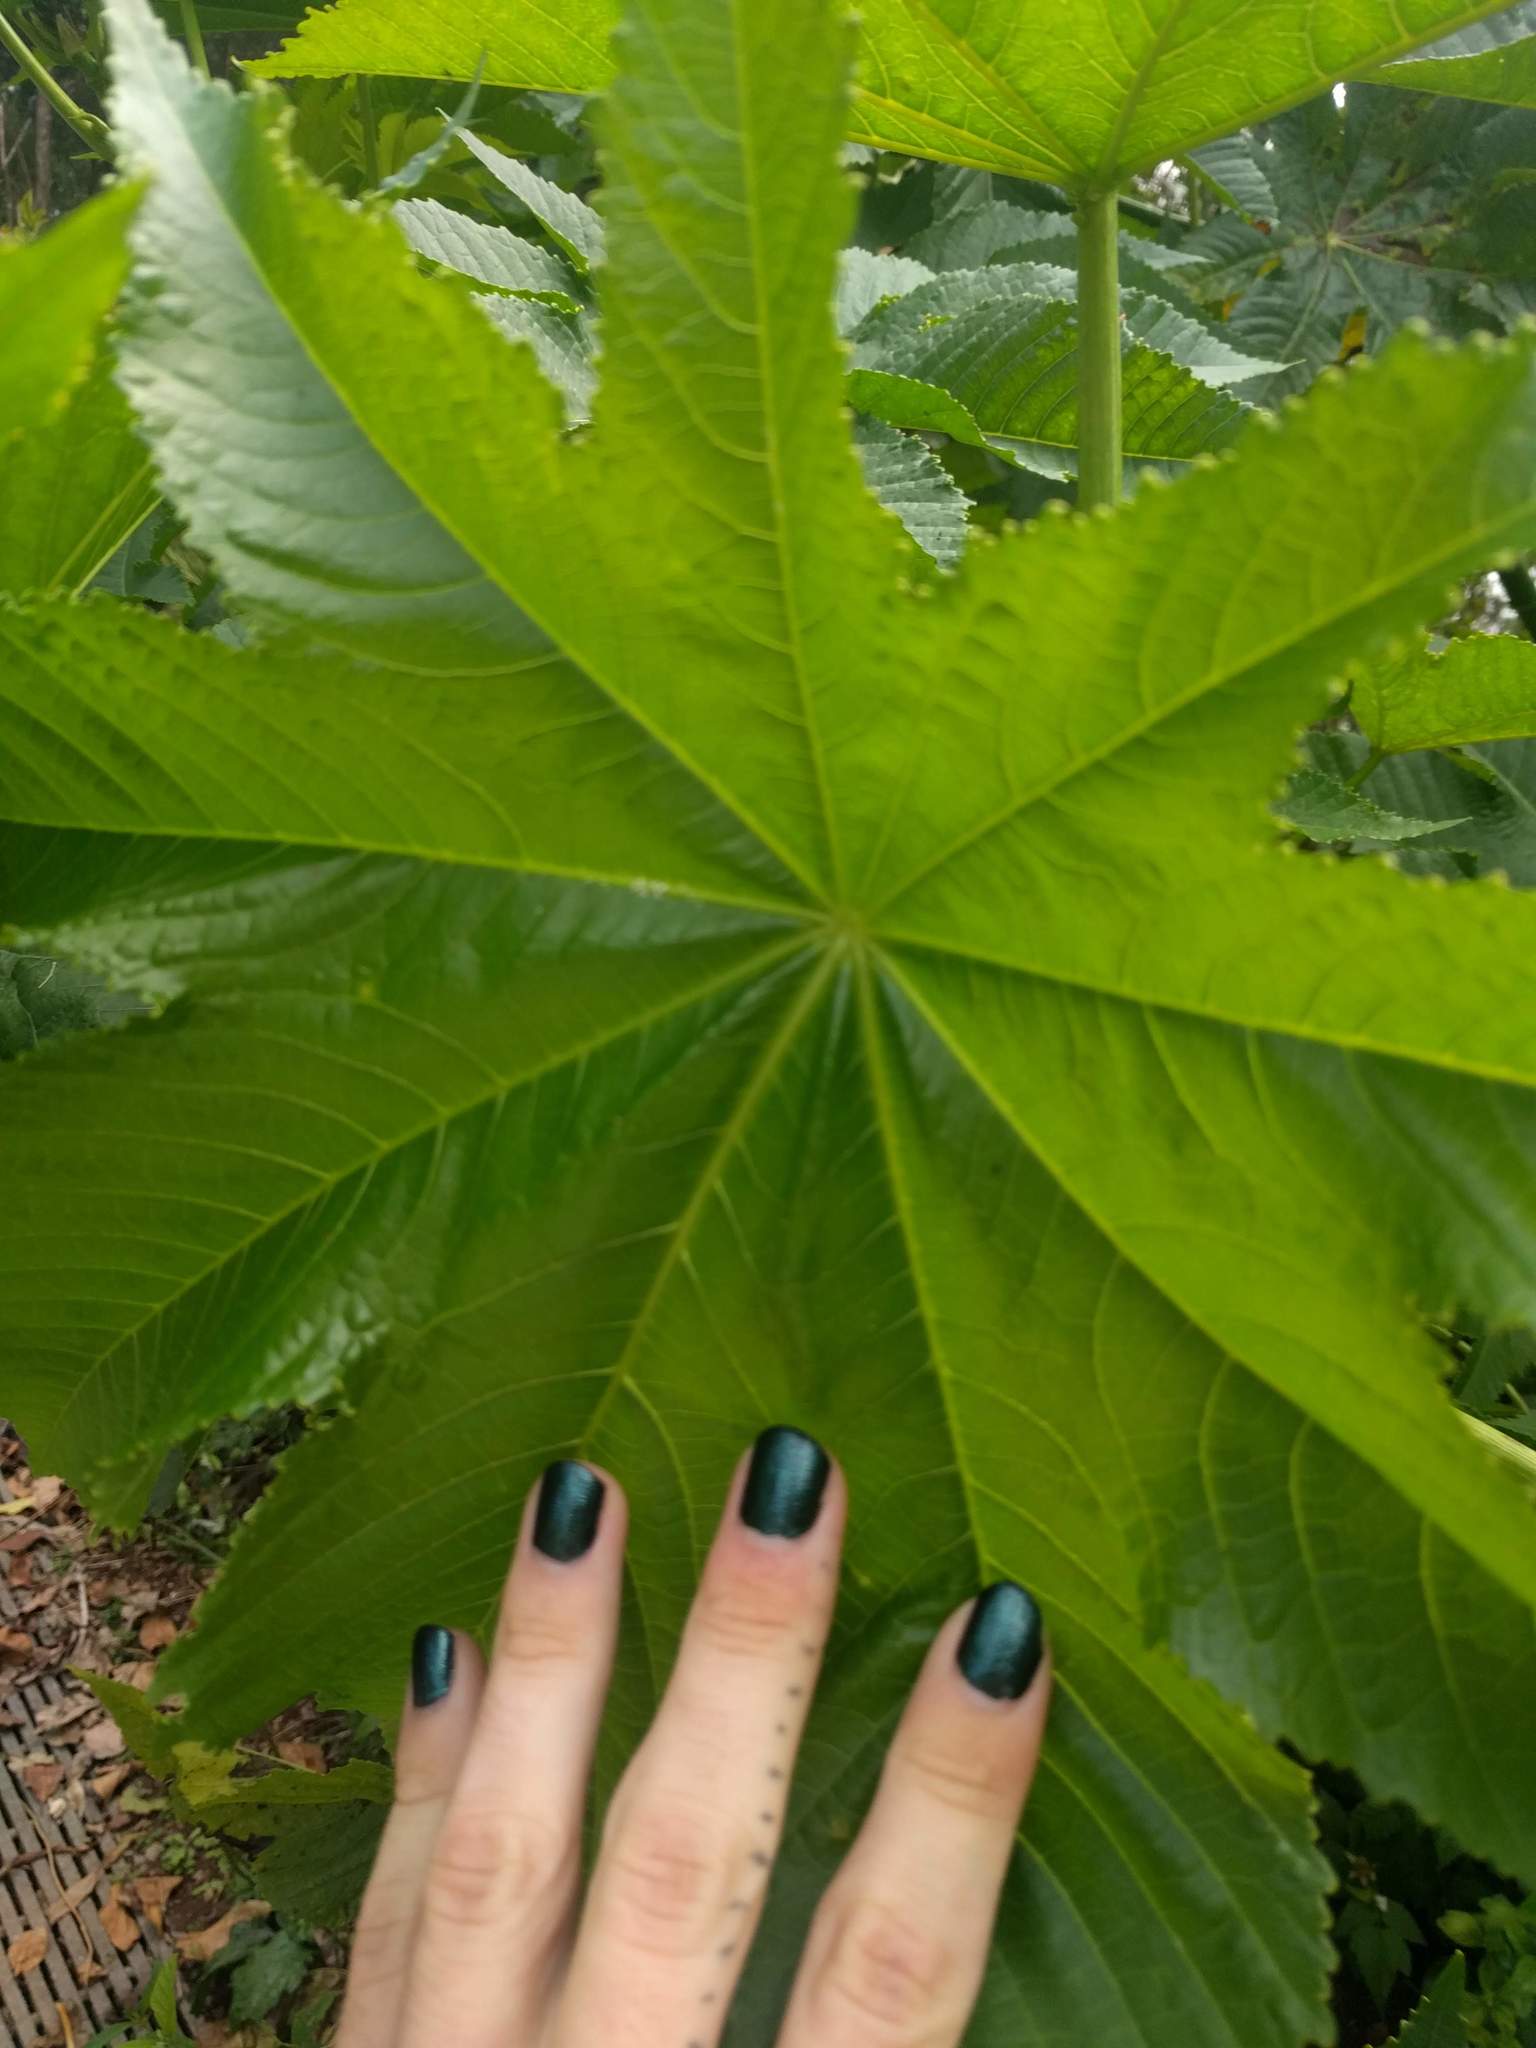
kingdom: Plantae
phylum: Tracheophyta
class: Magnoliopsida
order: Malpighiales
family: Euphorbiaceae
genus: Ricinus
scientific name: Ricinus communis
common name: Castor-oil-plant
